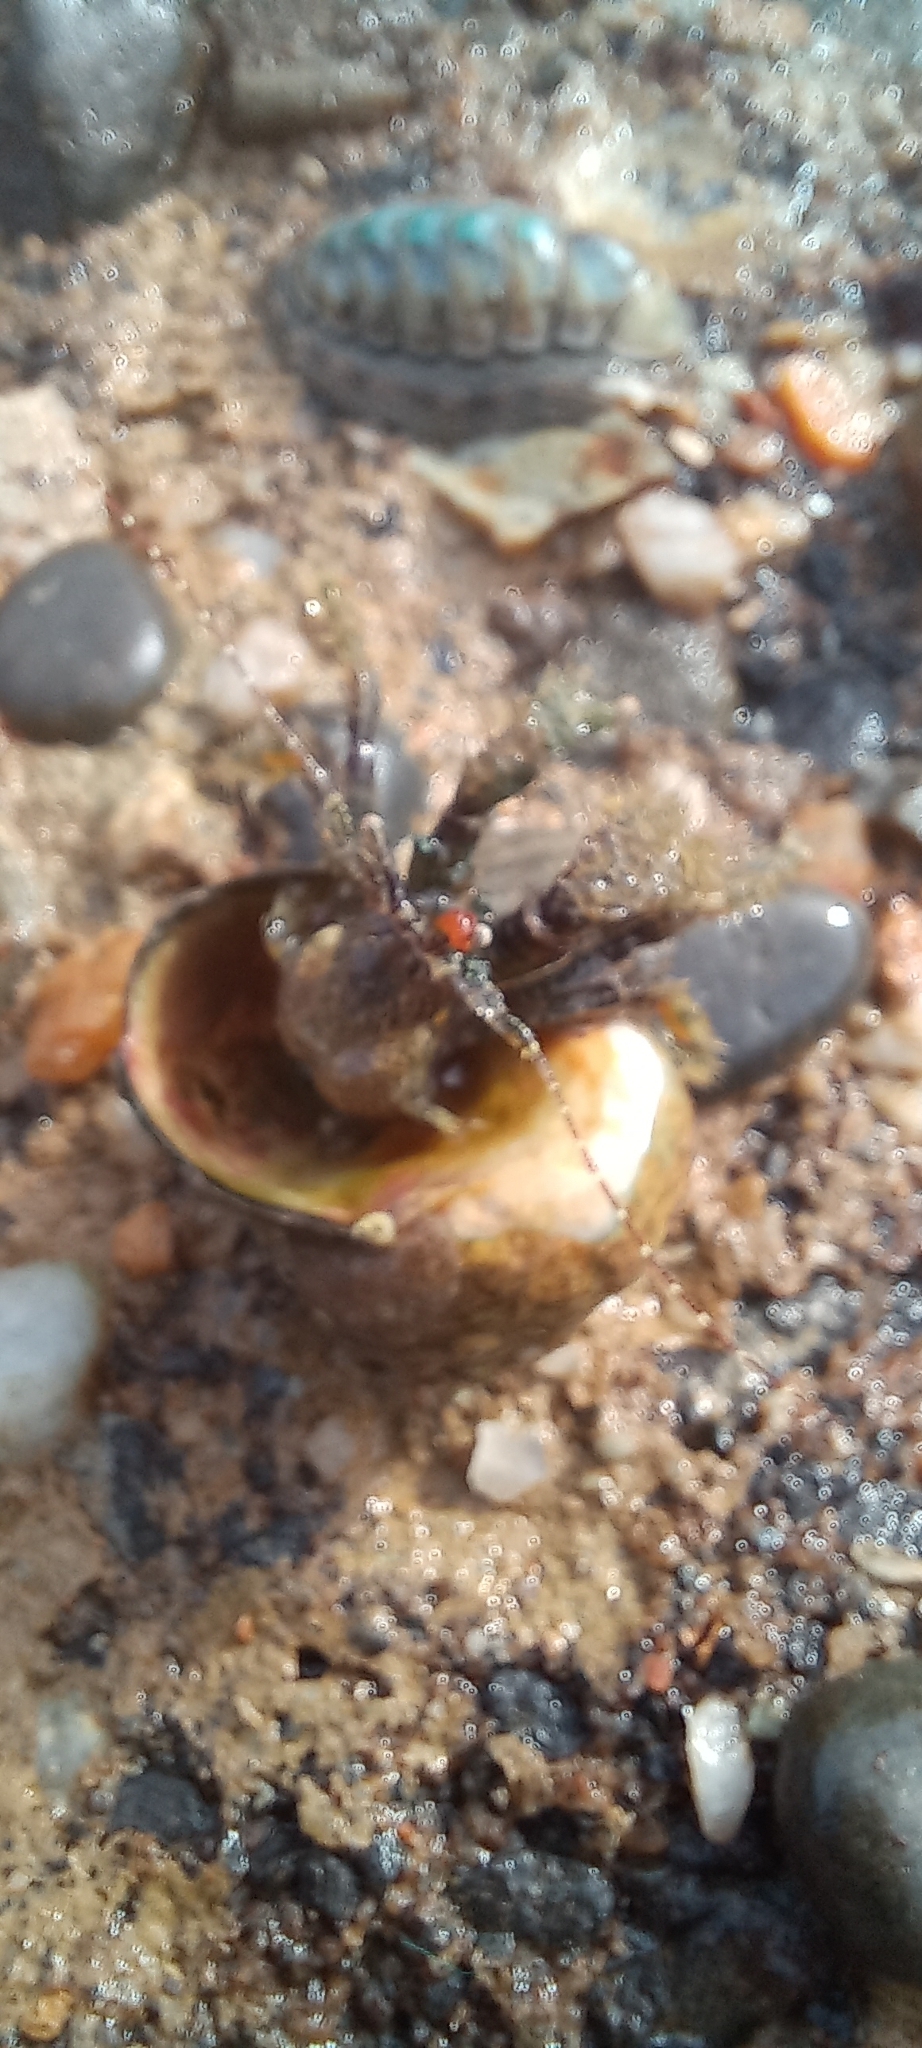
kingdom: Animalia
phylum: Arthropoda
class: Malacostraca
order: Decapoda
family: Paguridae
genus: Pagurus
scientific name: Pagurus traversi
